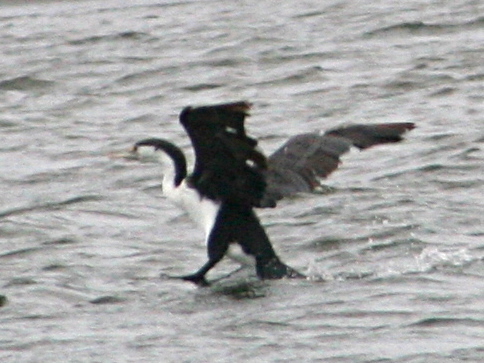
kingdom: Animalia
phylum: Chordata
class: Aves
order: Suliformes
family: Phalacrocoracidae
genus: Phalacrocorax
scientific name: Phalacrocorax varius
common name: Pied cormorant
